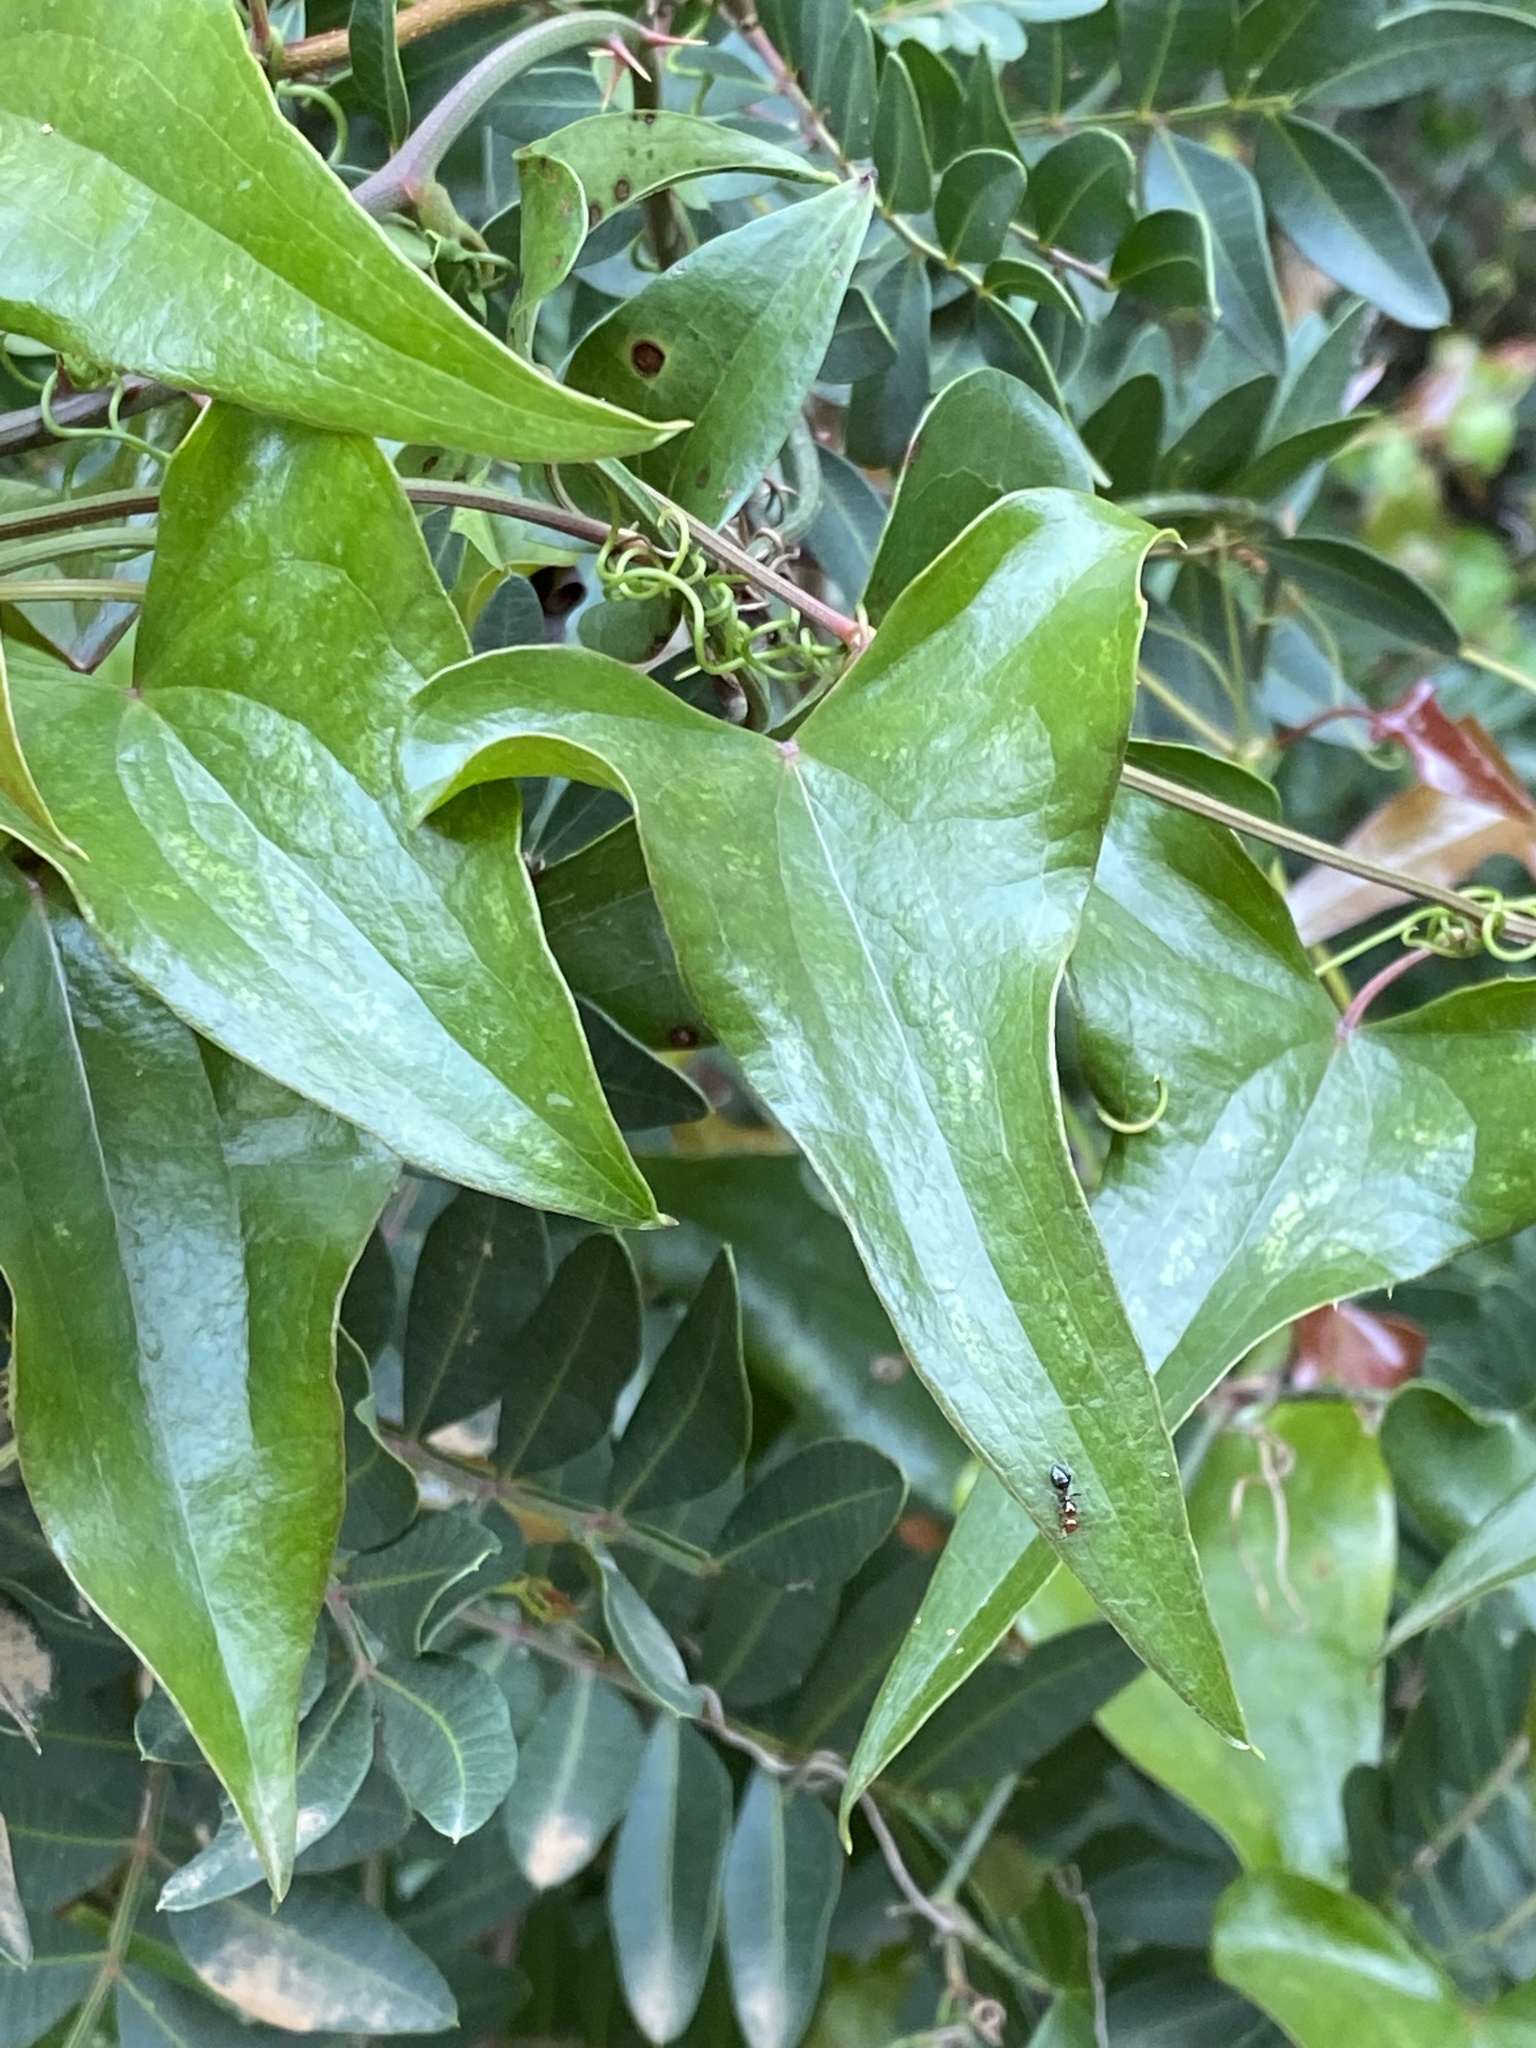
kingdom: Plantae
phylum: Tracheophyta
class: Liliopsida
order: Liliales
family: Smilacaceae
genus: Smilax
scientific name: Smilax aspera
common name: Common smilax
